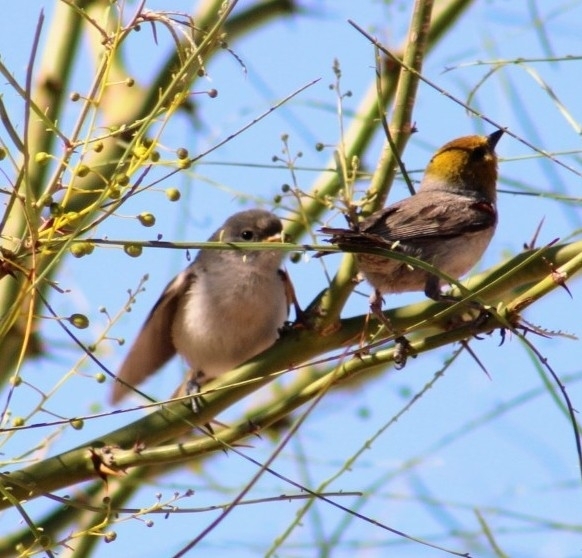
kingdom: Animalia
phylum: Chordata
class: Aves
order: Passeriformes
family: Remizidae
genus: Auriparus
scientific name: Auriparus flaviceps
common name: Verdin
